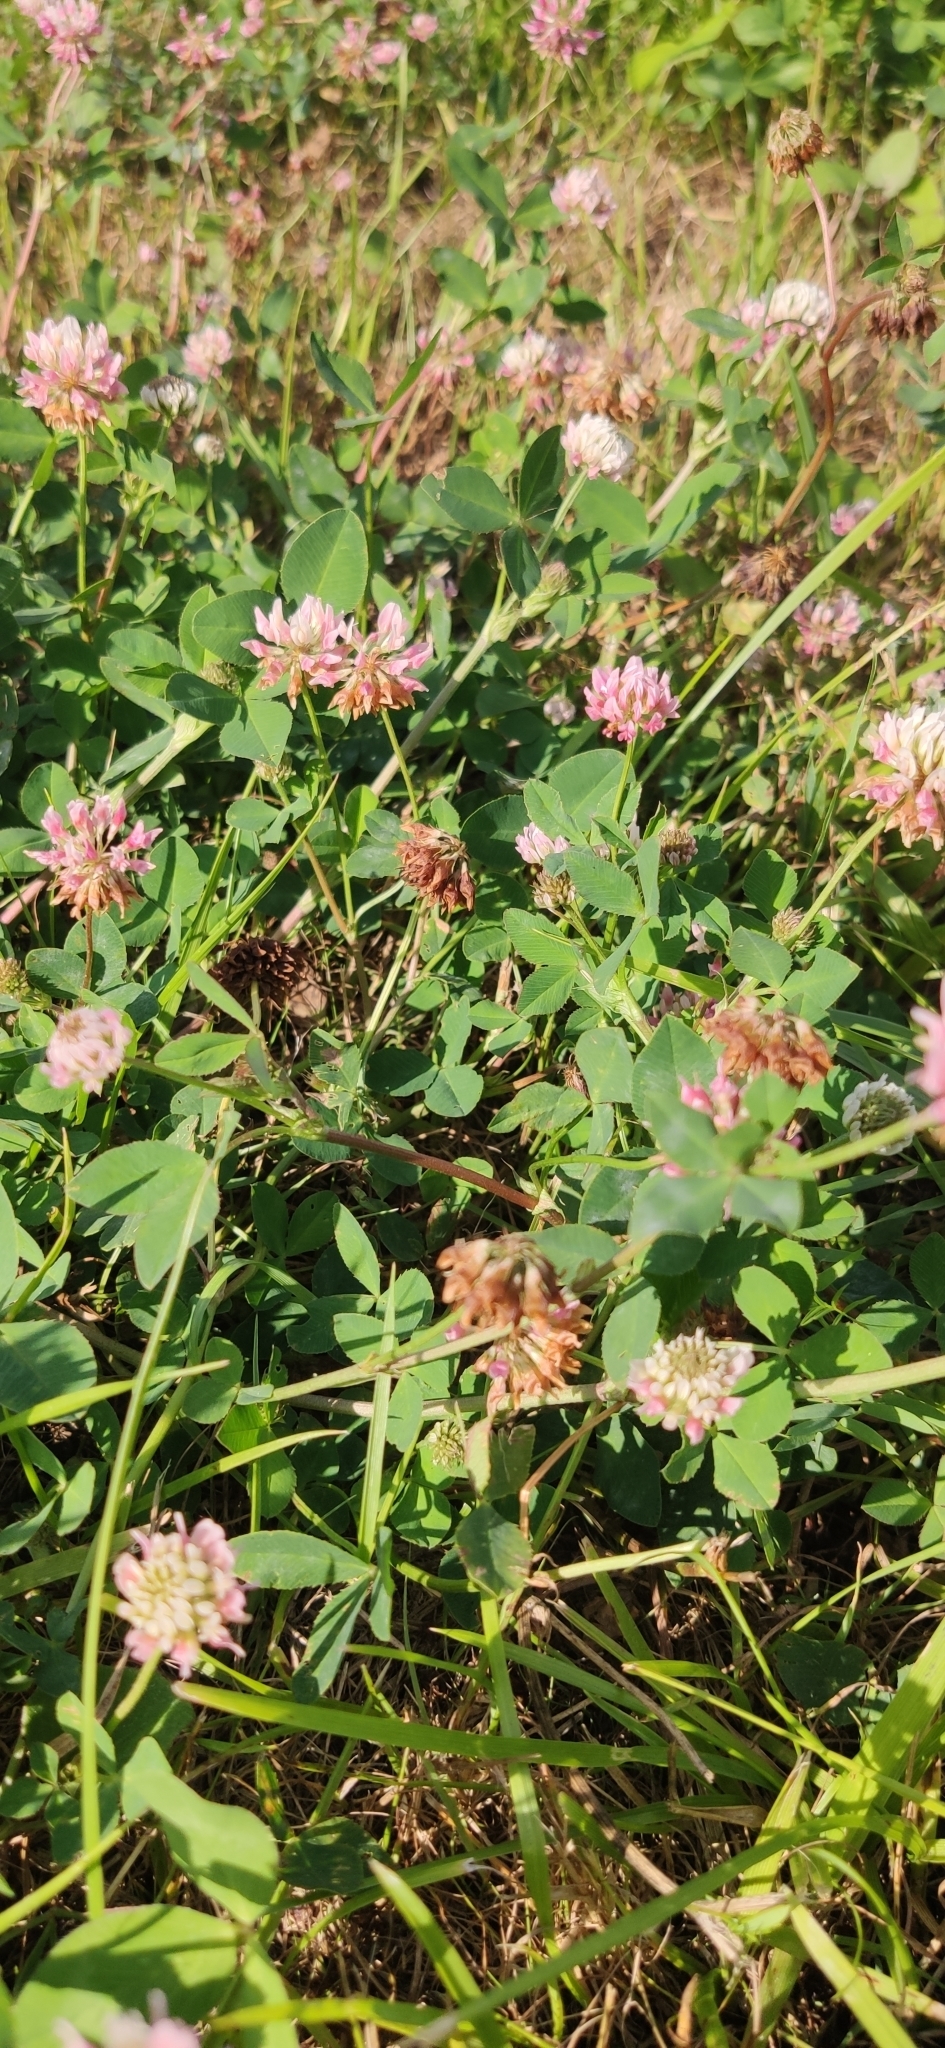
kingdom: Plantae
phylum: Tracheophyta
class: Magnoliopsida
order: Fabales
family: Fabaceae
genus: Trifolium
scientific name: Trifolium hybridum
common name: Alsike clover
